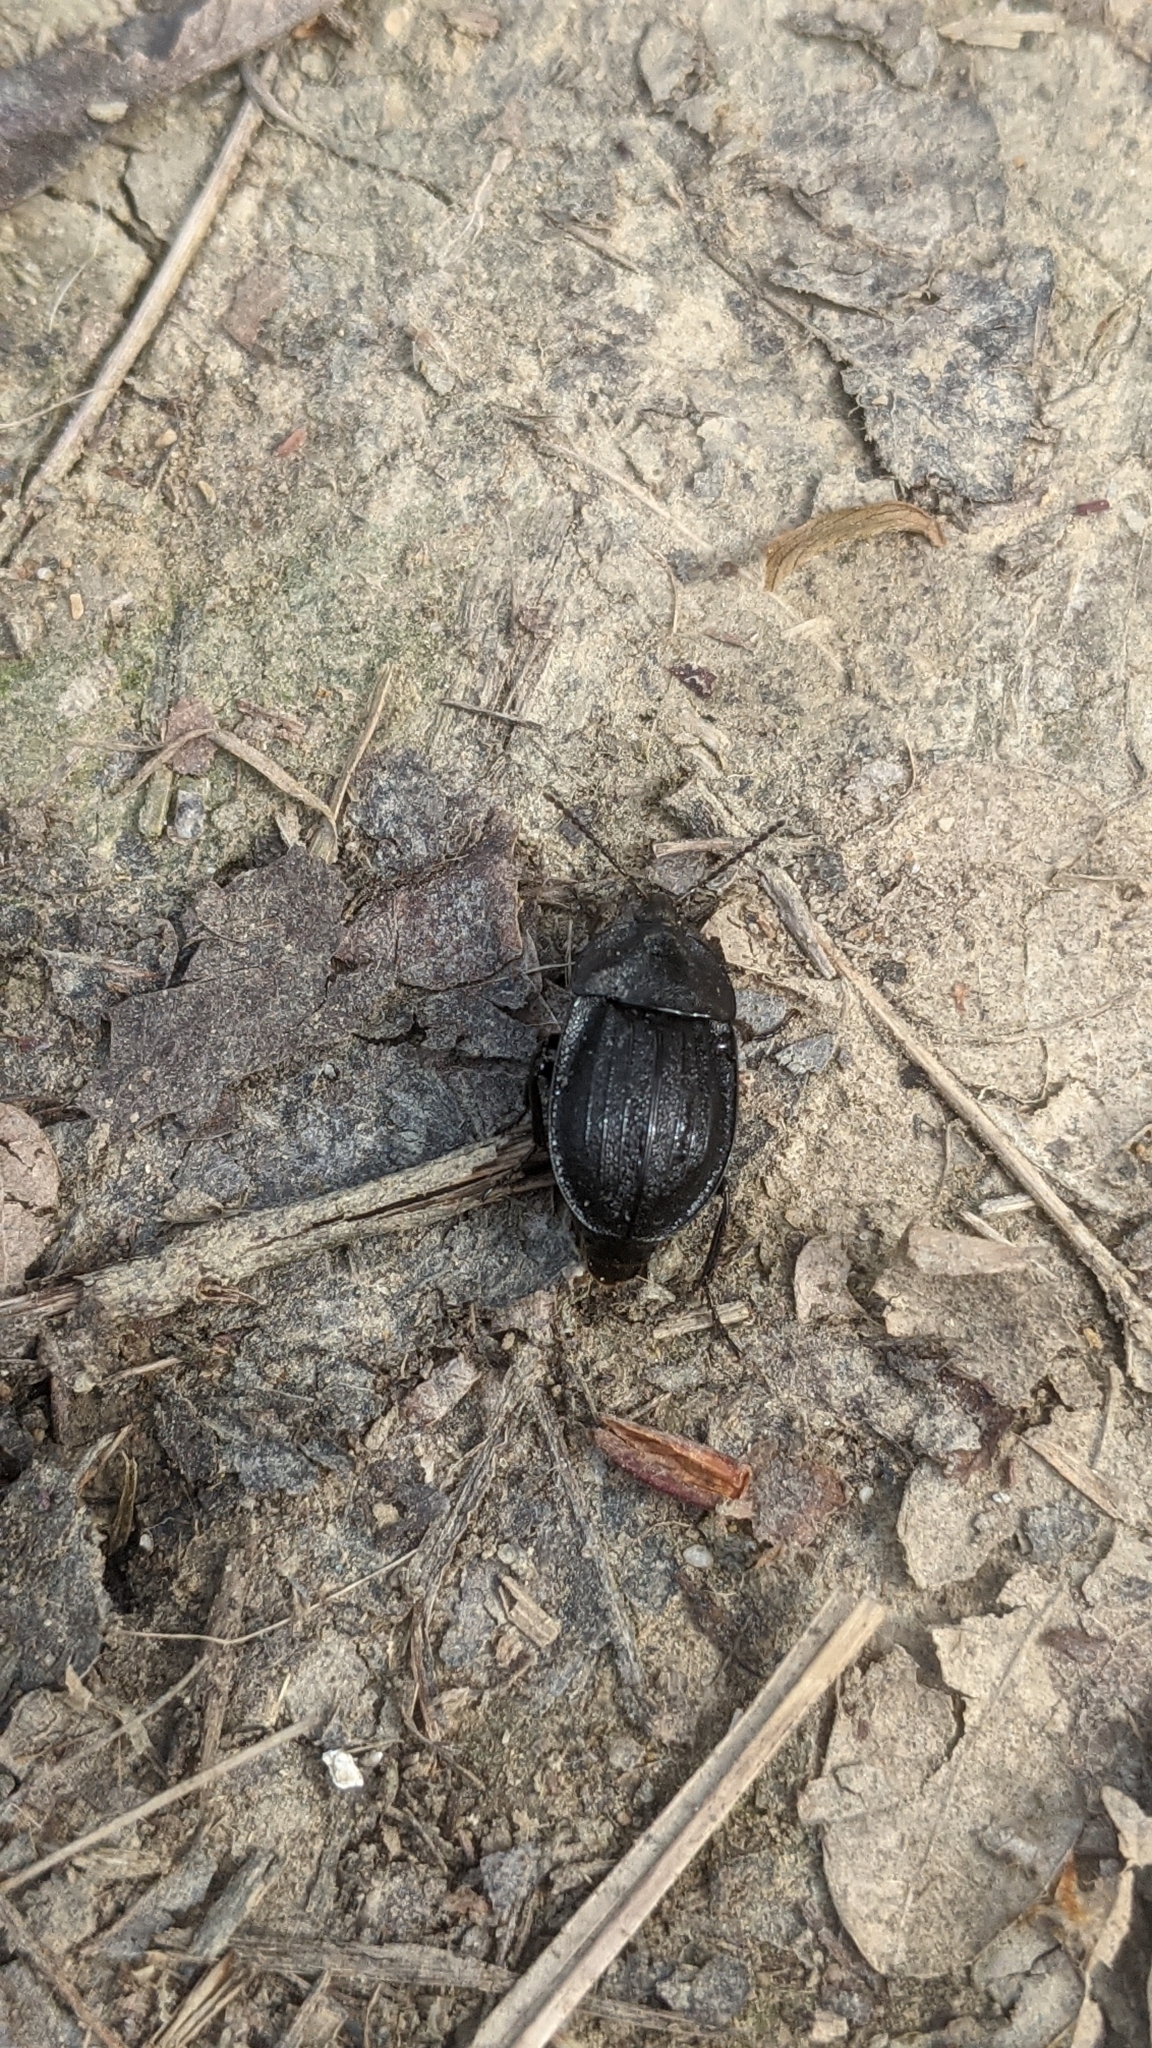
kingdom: Animalia
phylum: Arthropoda
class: Insecta
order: Coleoptera
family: Staphylinidae
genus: Silpha
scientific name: Silpha atrata
